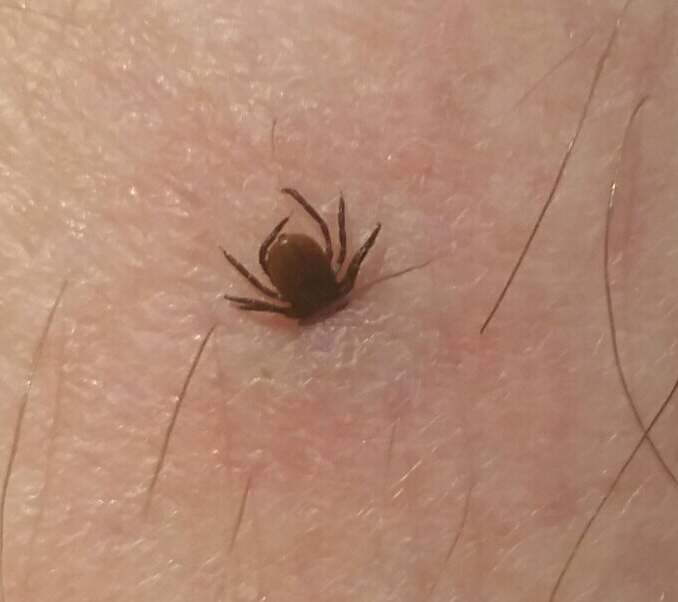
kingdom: Animalia
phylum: Arthropoda
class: Arachnida
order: Ixodida
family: Ixodidae
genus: Ixodes
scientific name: Ixodes pacificus
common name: California black-legged tick
